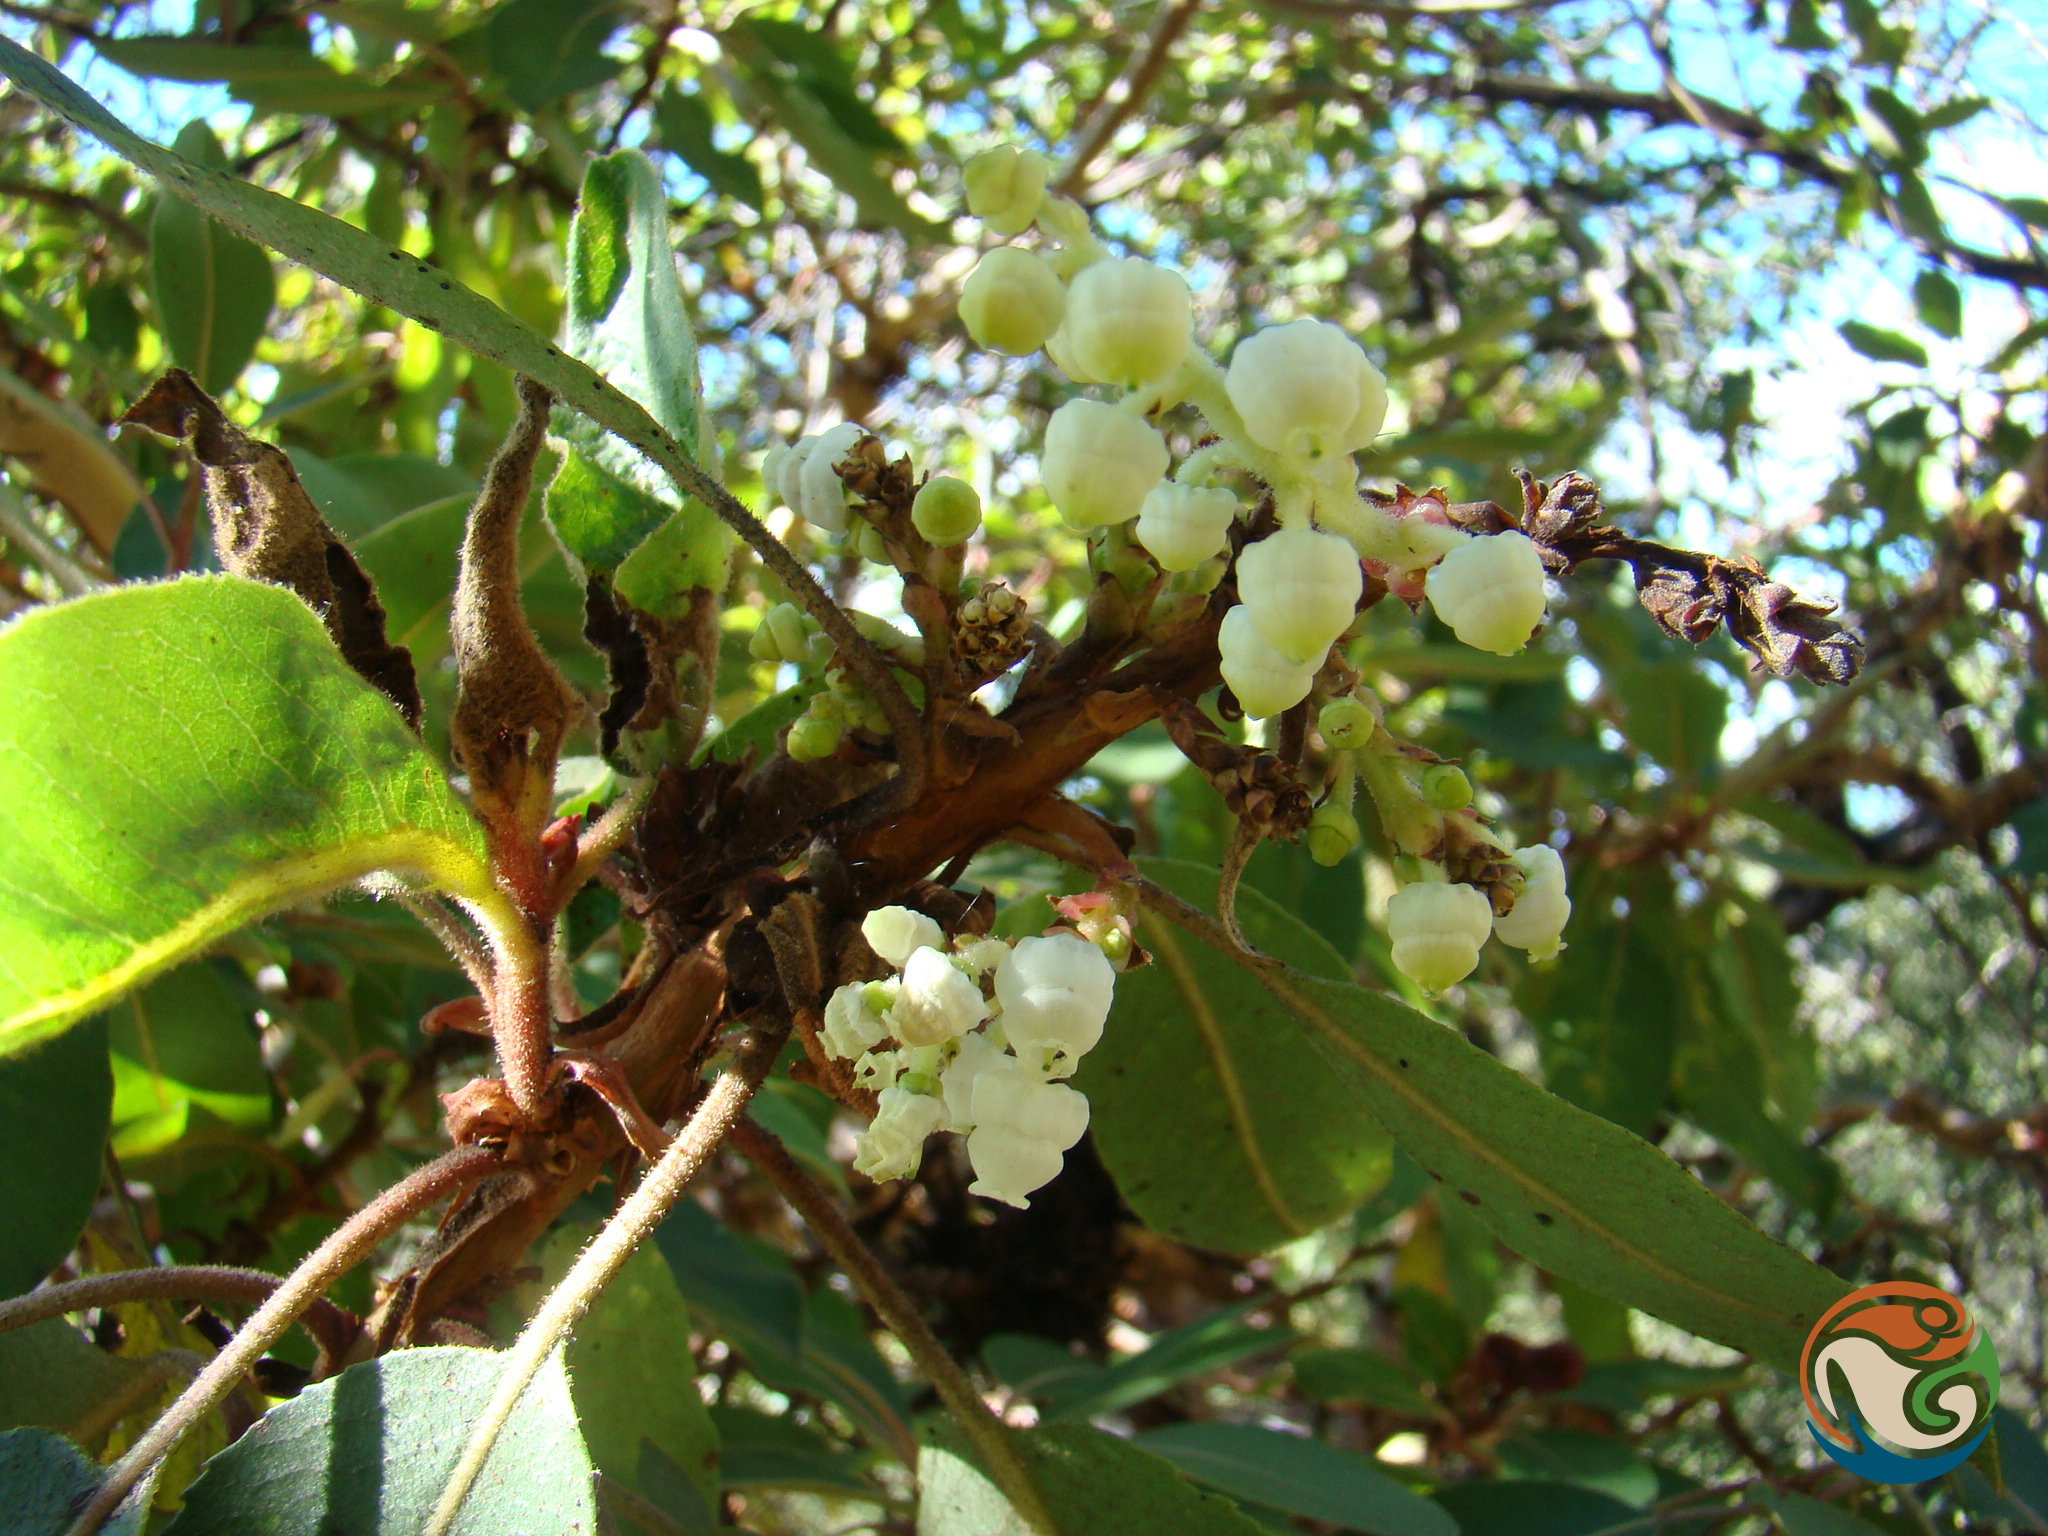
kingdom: Plantae
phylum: Tracheophyta
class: Magnoliopsida
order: Ericales
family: Ericaceae
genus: Arbutus
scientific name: Arbutus xalapensis
